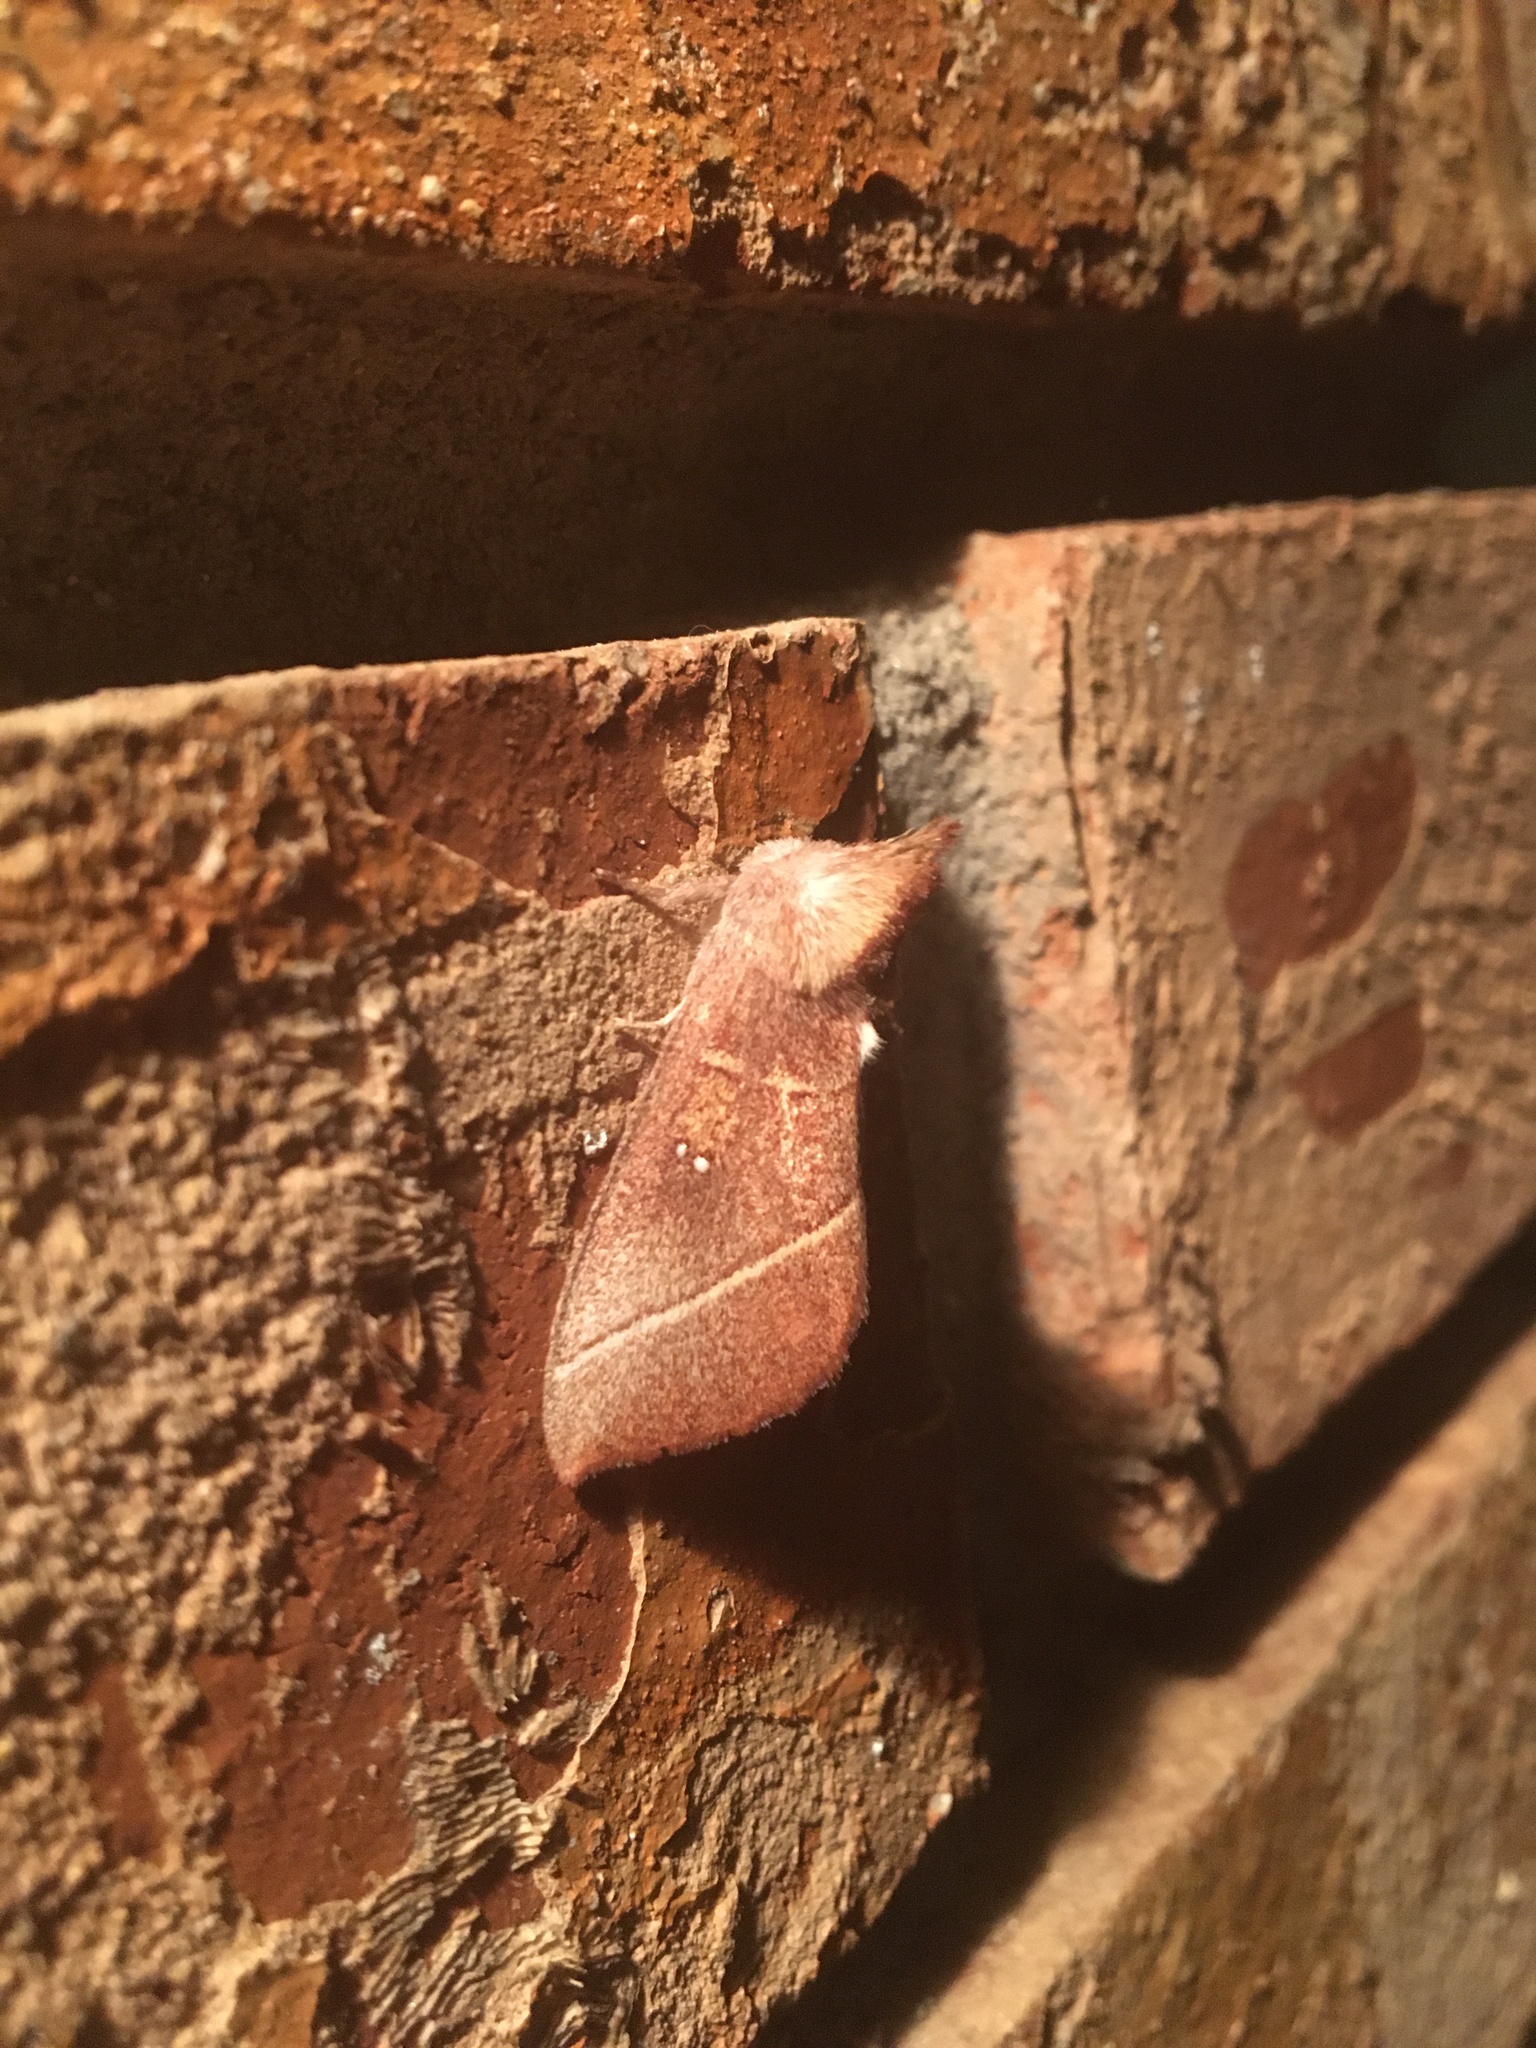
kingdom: Animalia
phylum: Arthropoda
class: Insecta
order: Lepidoptera
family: Notodontidae
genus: Nadata
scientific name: Nadata gibbosa
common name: White-dotted prominent
